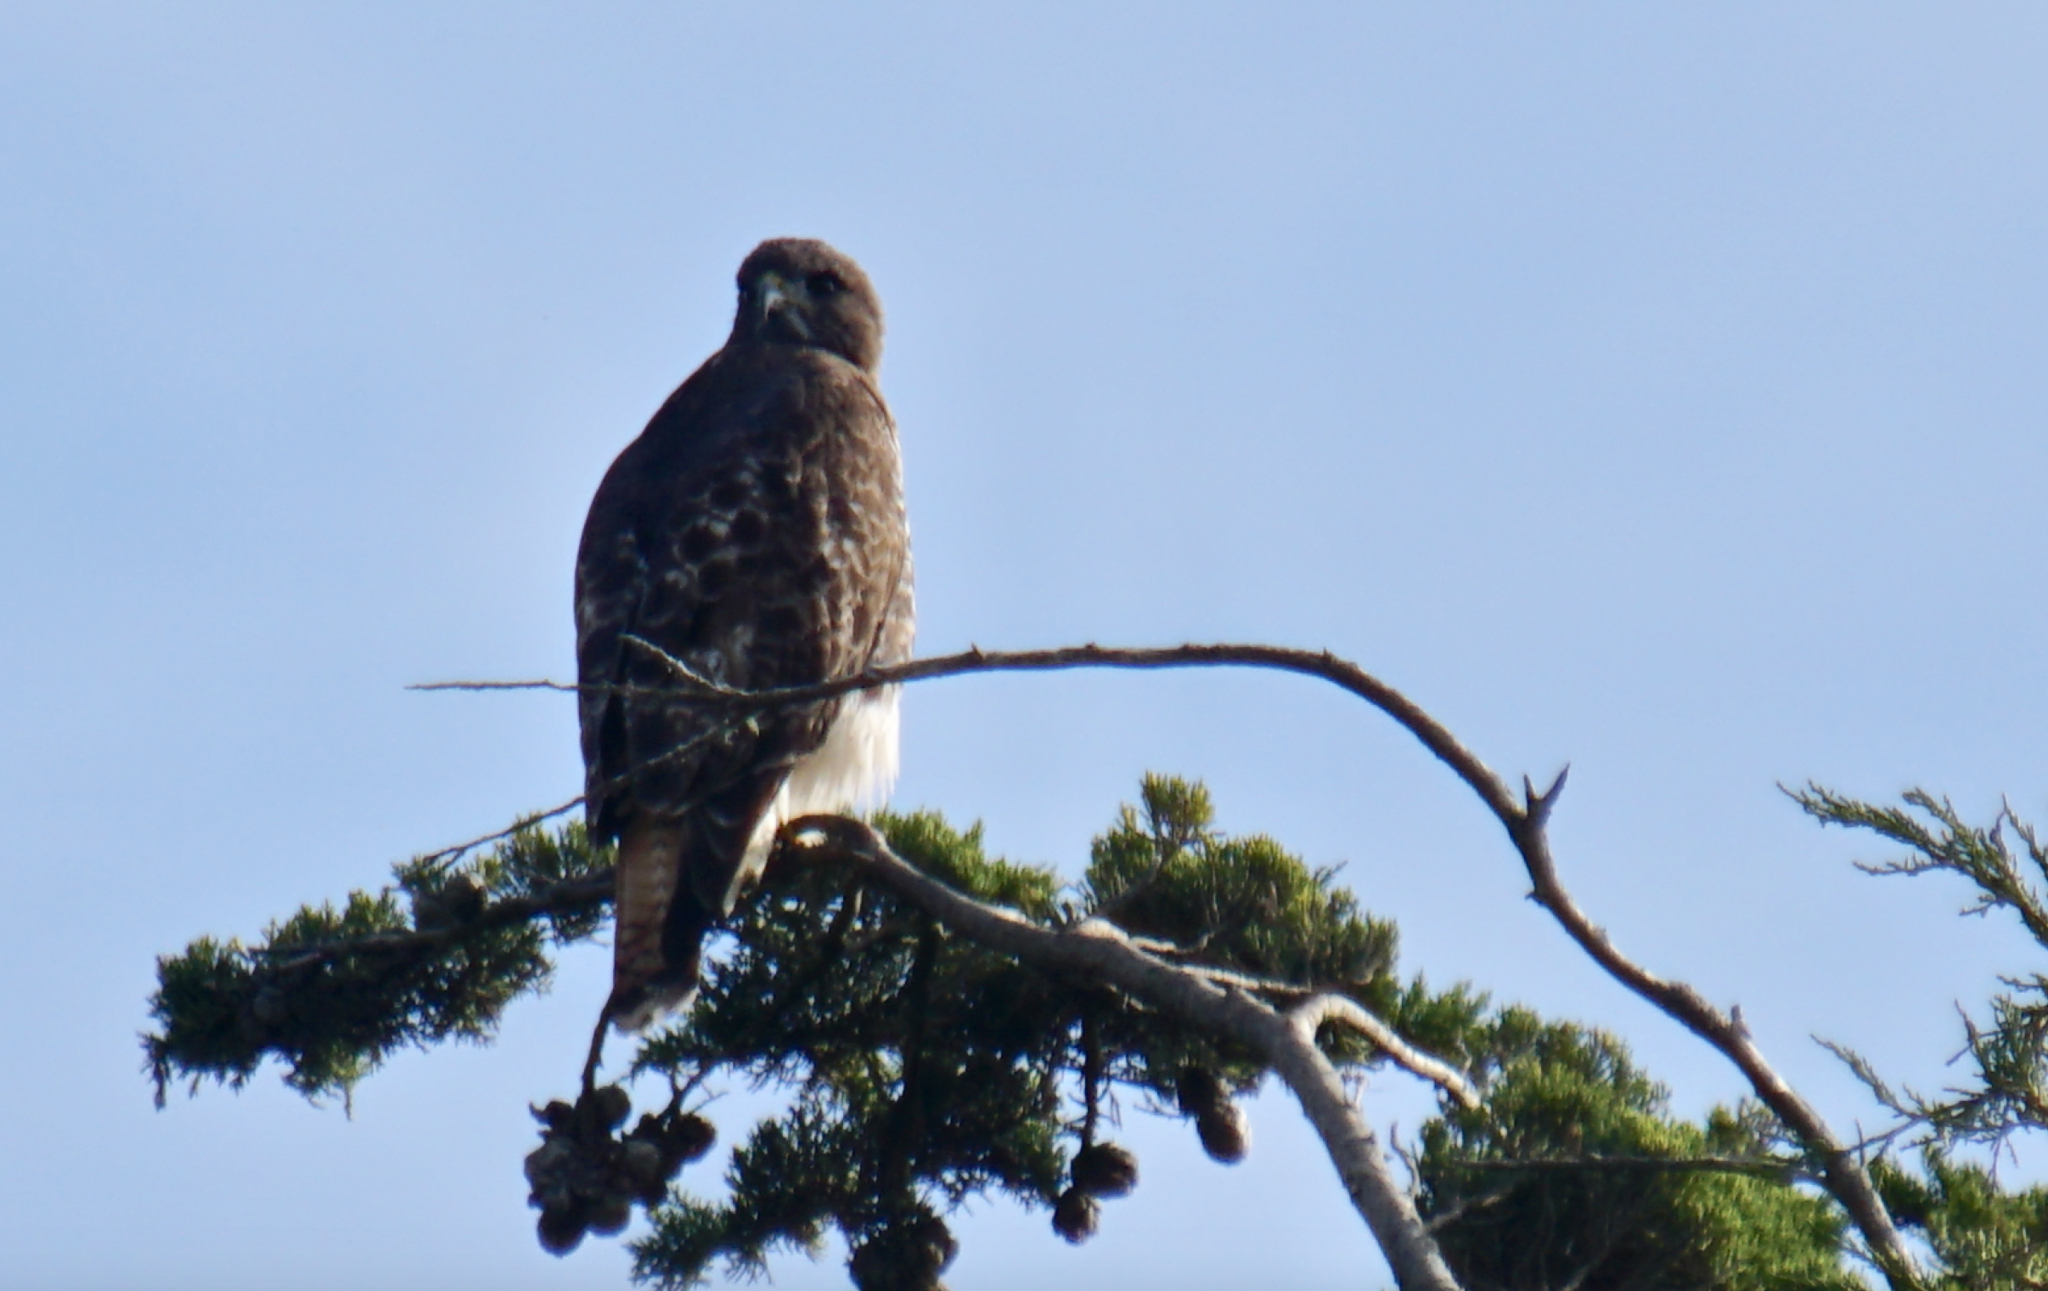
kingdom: Animalia
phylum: Chordata
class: Aves
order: Accipitriformes
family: Accipitridae
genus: Buteo
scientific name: Buteo jamaicensis
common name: Red-tailed hawk
